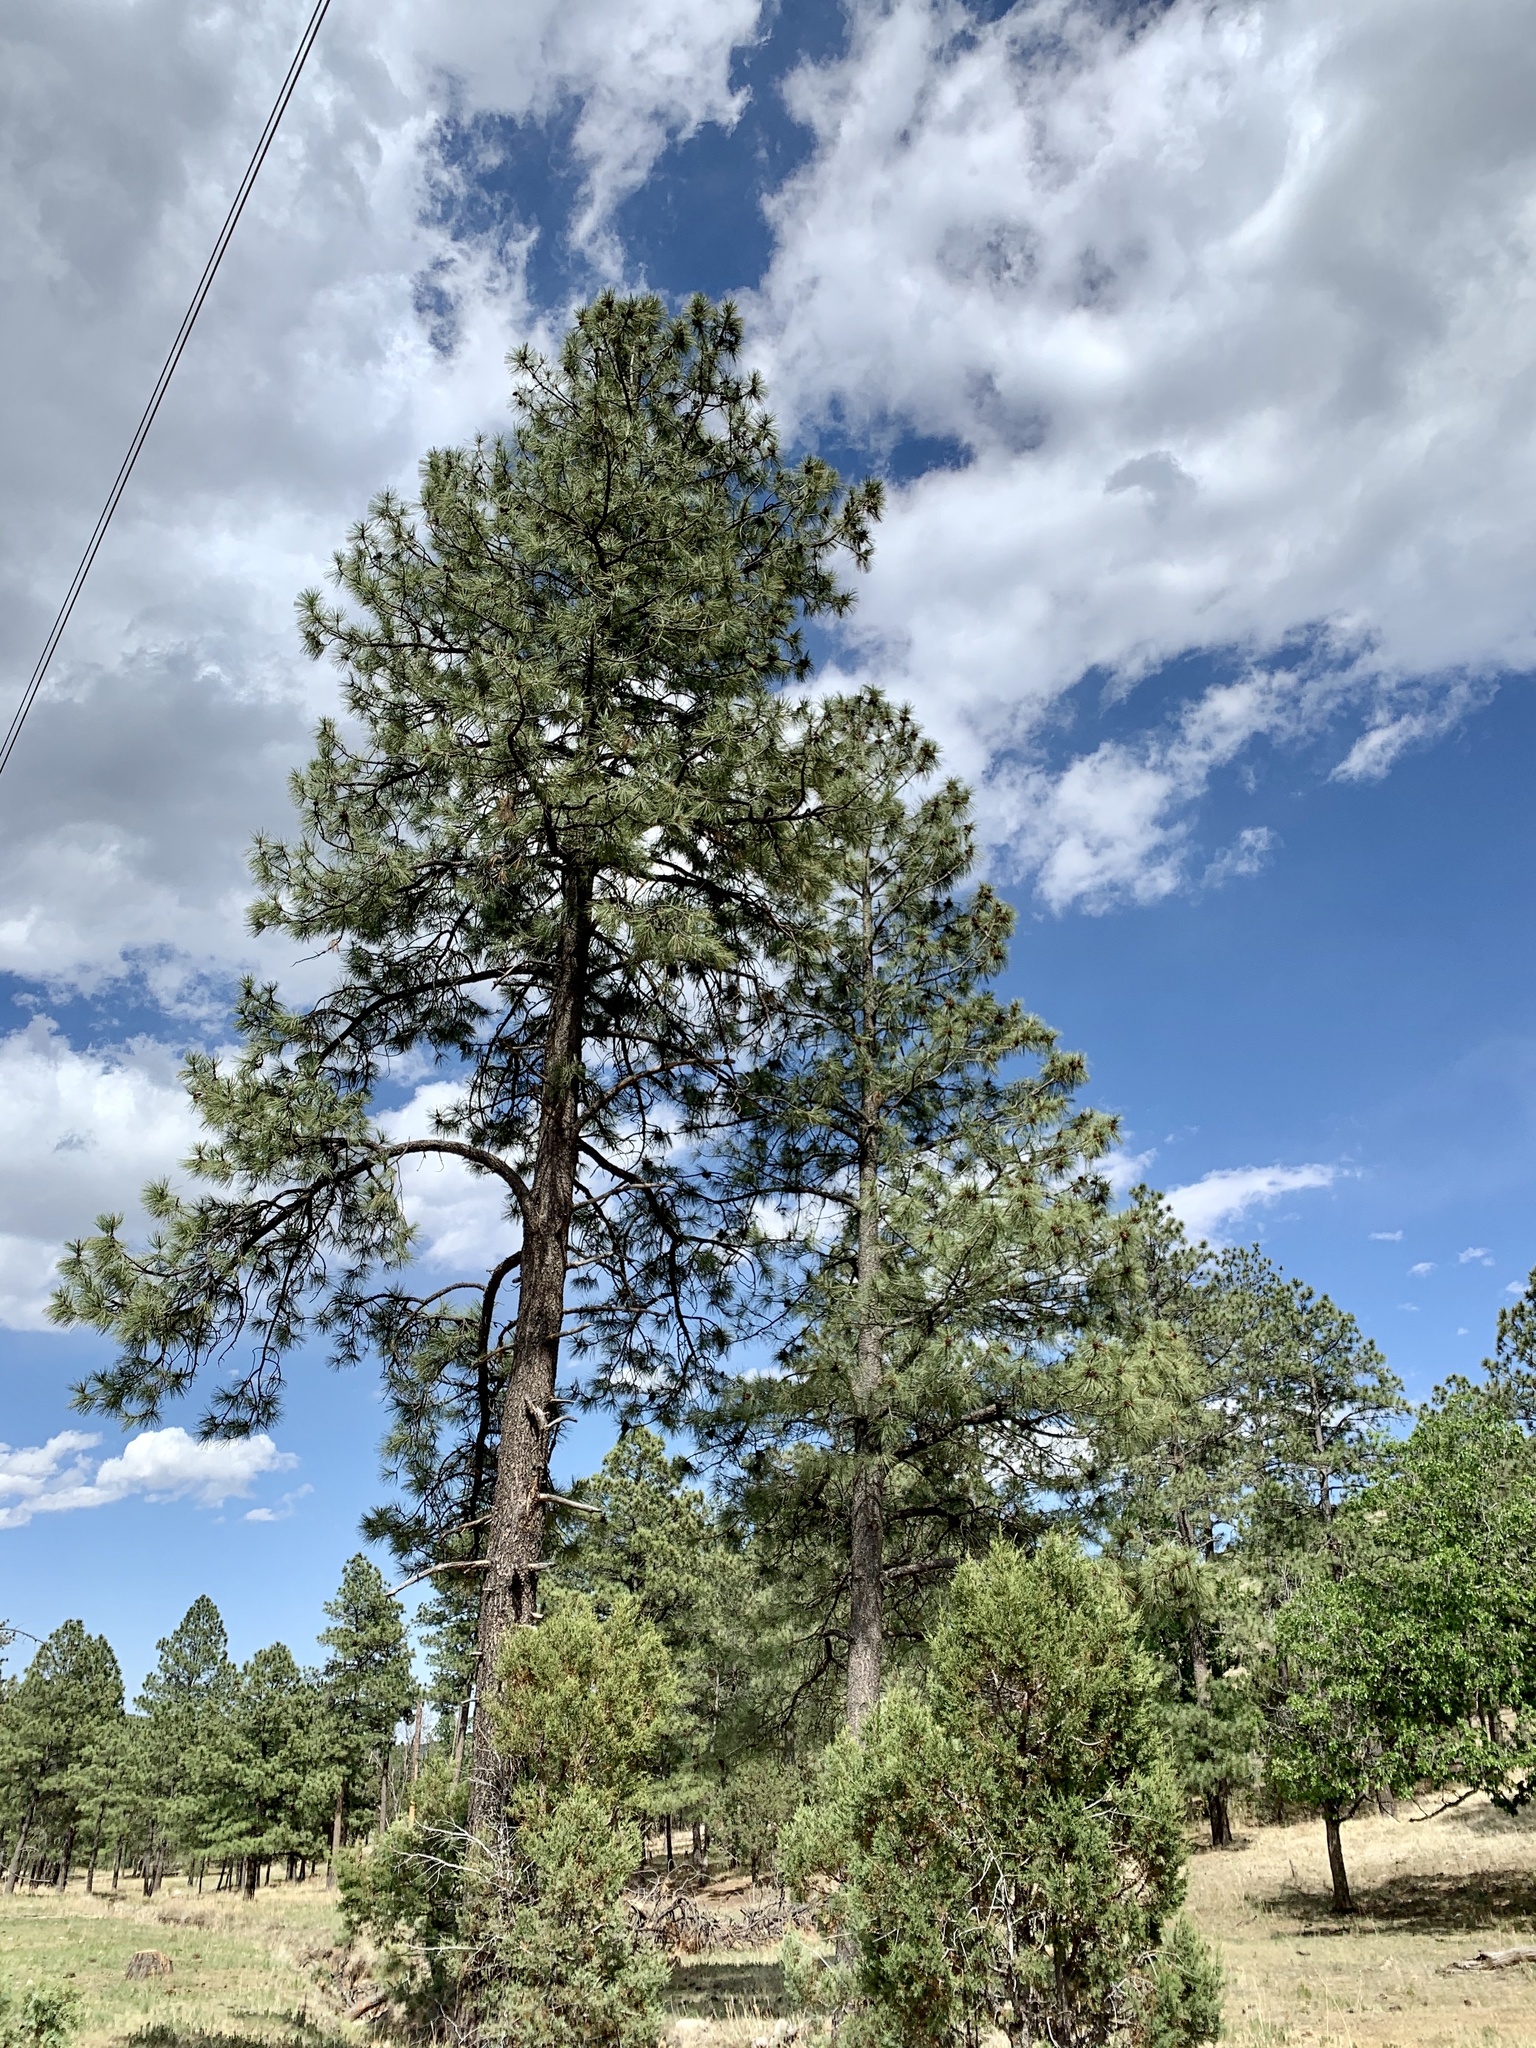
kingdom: Plantae
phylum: Tracheophyta
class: Pinopsida
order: Pinales
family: Pinaceae
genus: Pinus
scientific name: Pinus ponderosa
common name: Western yellow-pine
